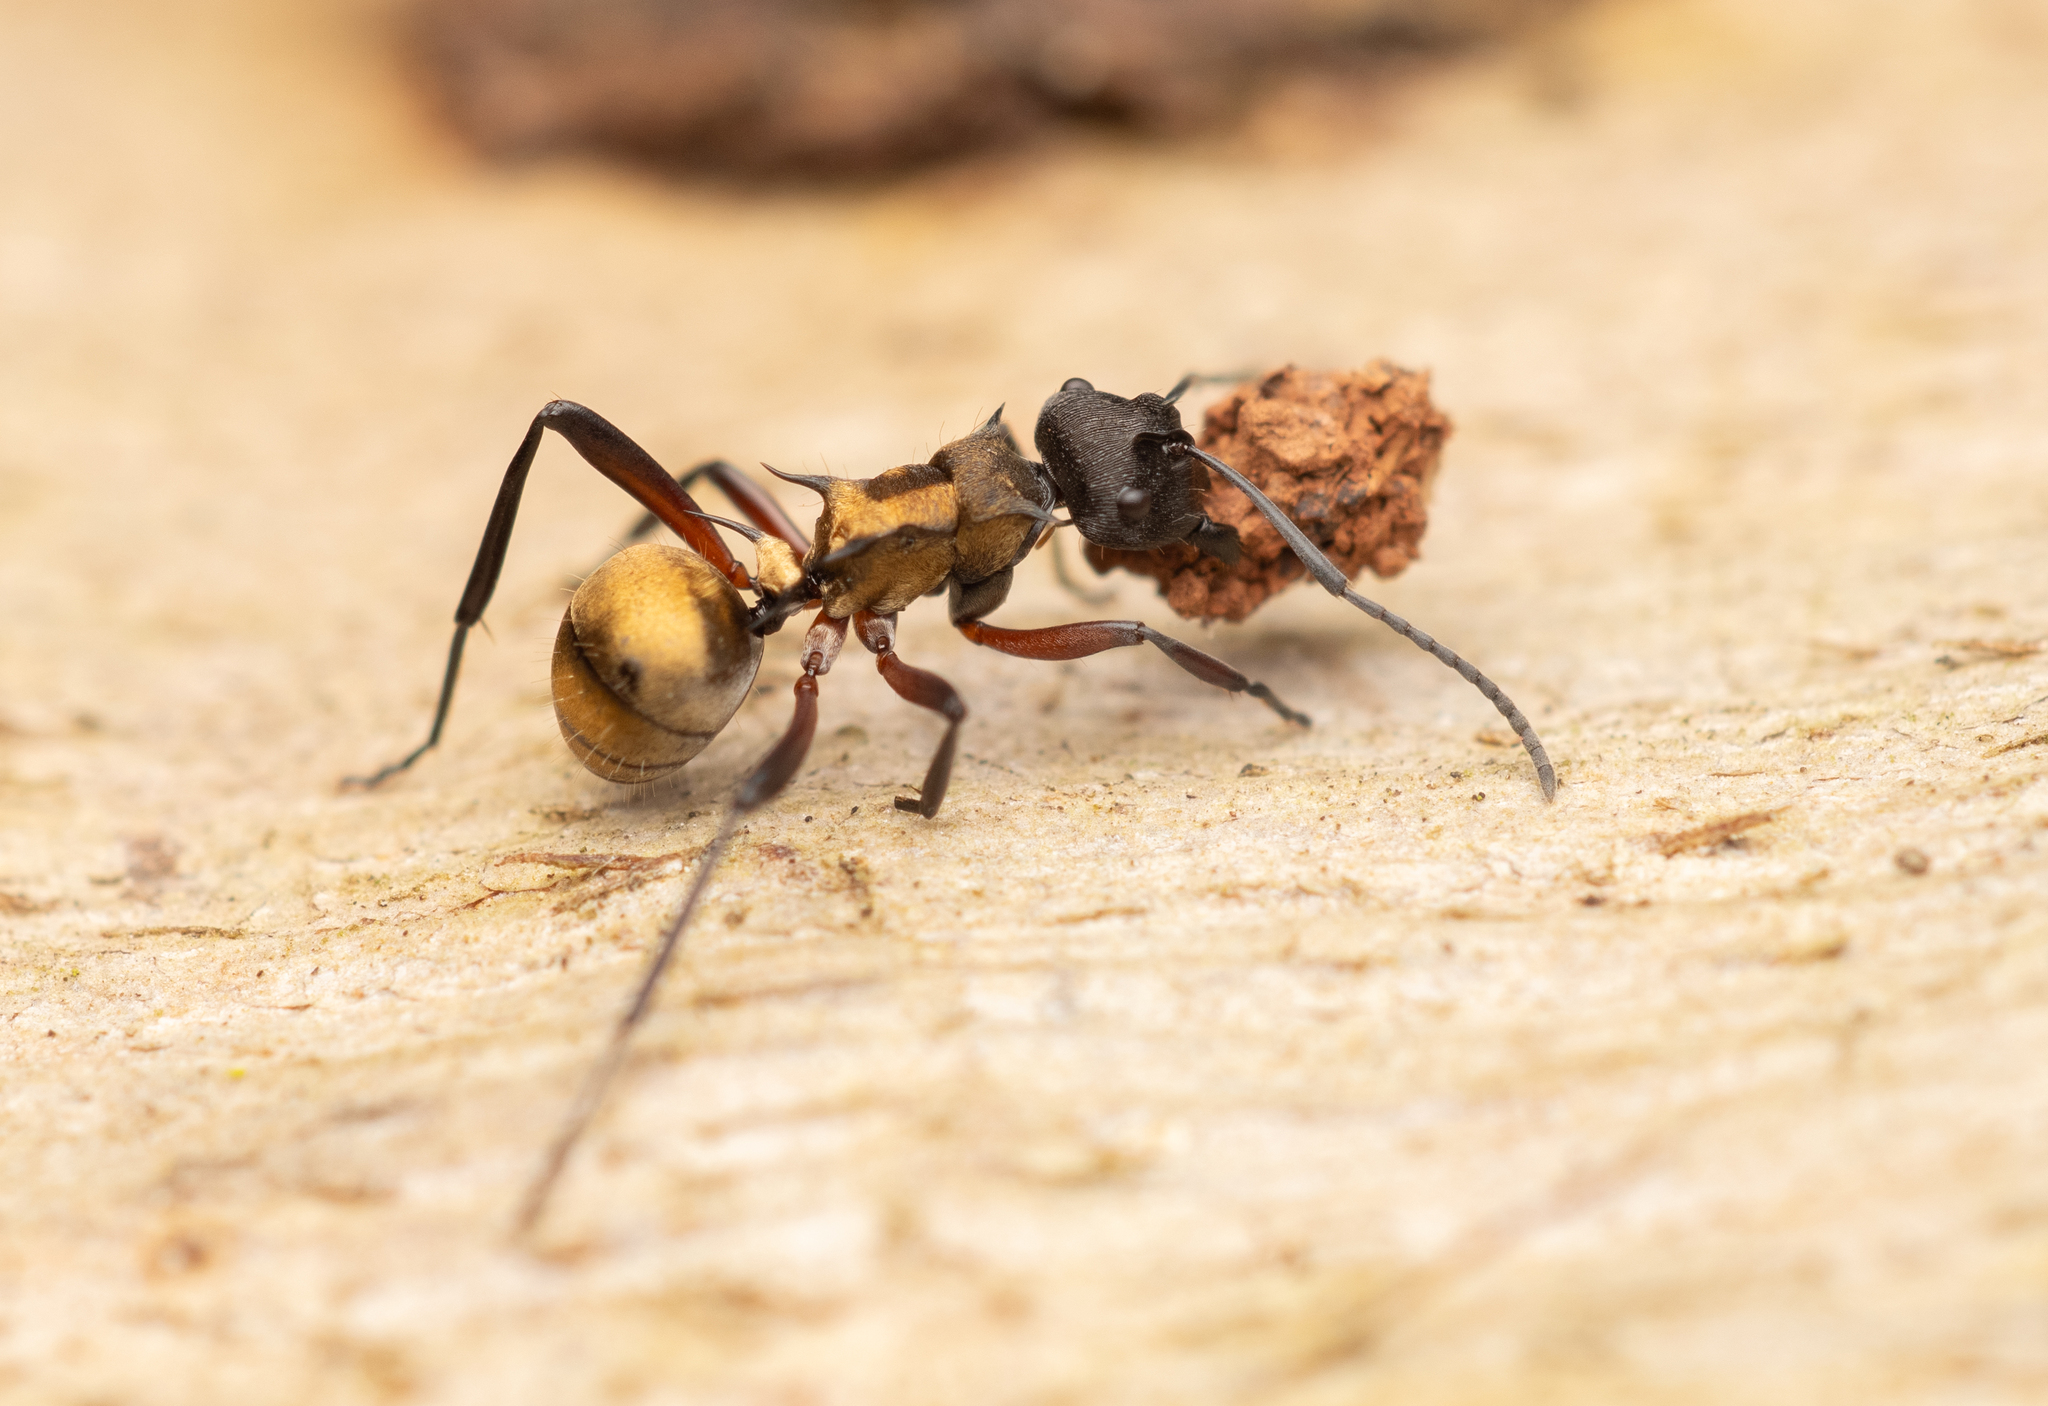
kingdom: Animalia
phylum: Arthropoda
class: Insecta
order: Hymenoptera
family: Formicidae
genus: Polyrhachis
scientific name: Polyrhachis rufifemur
